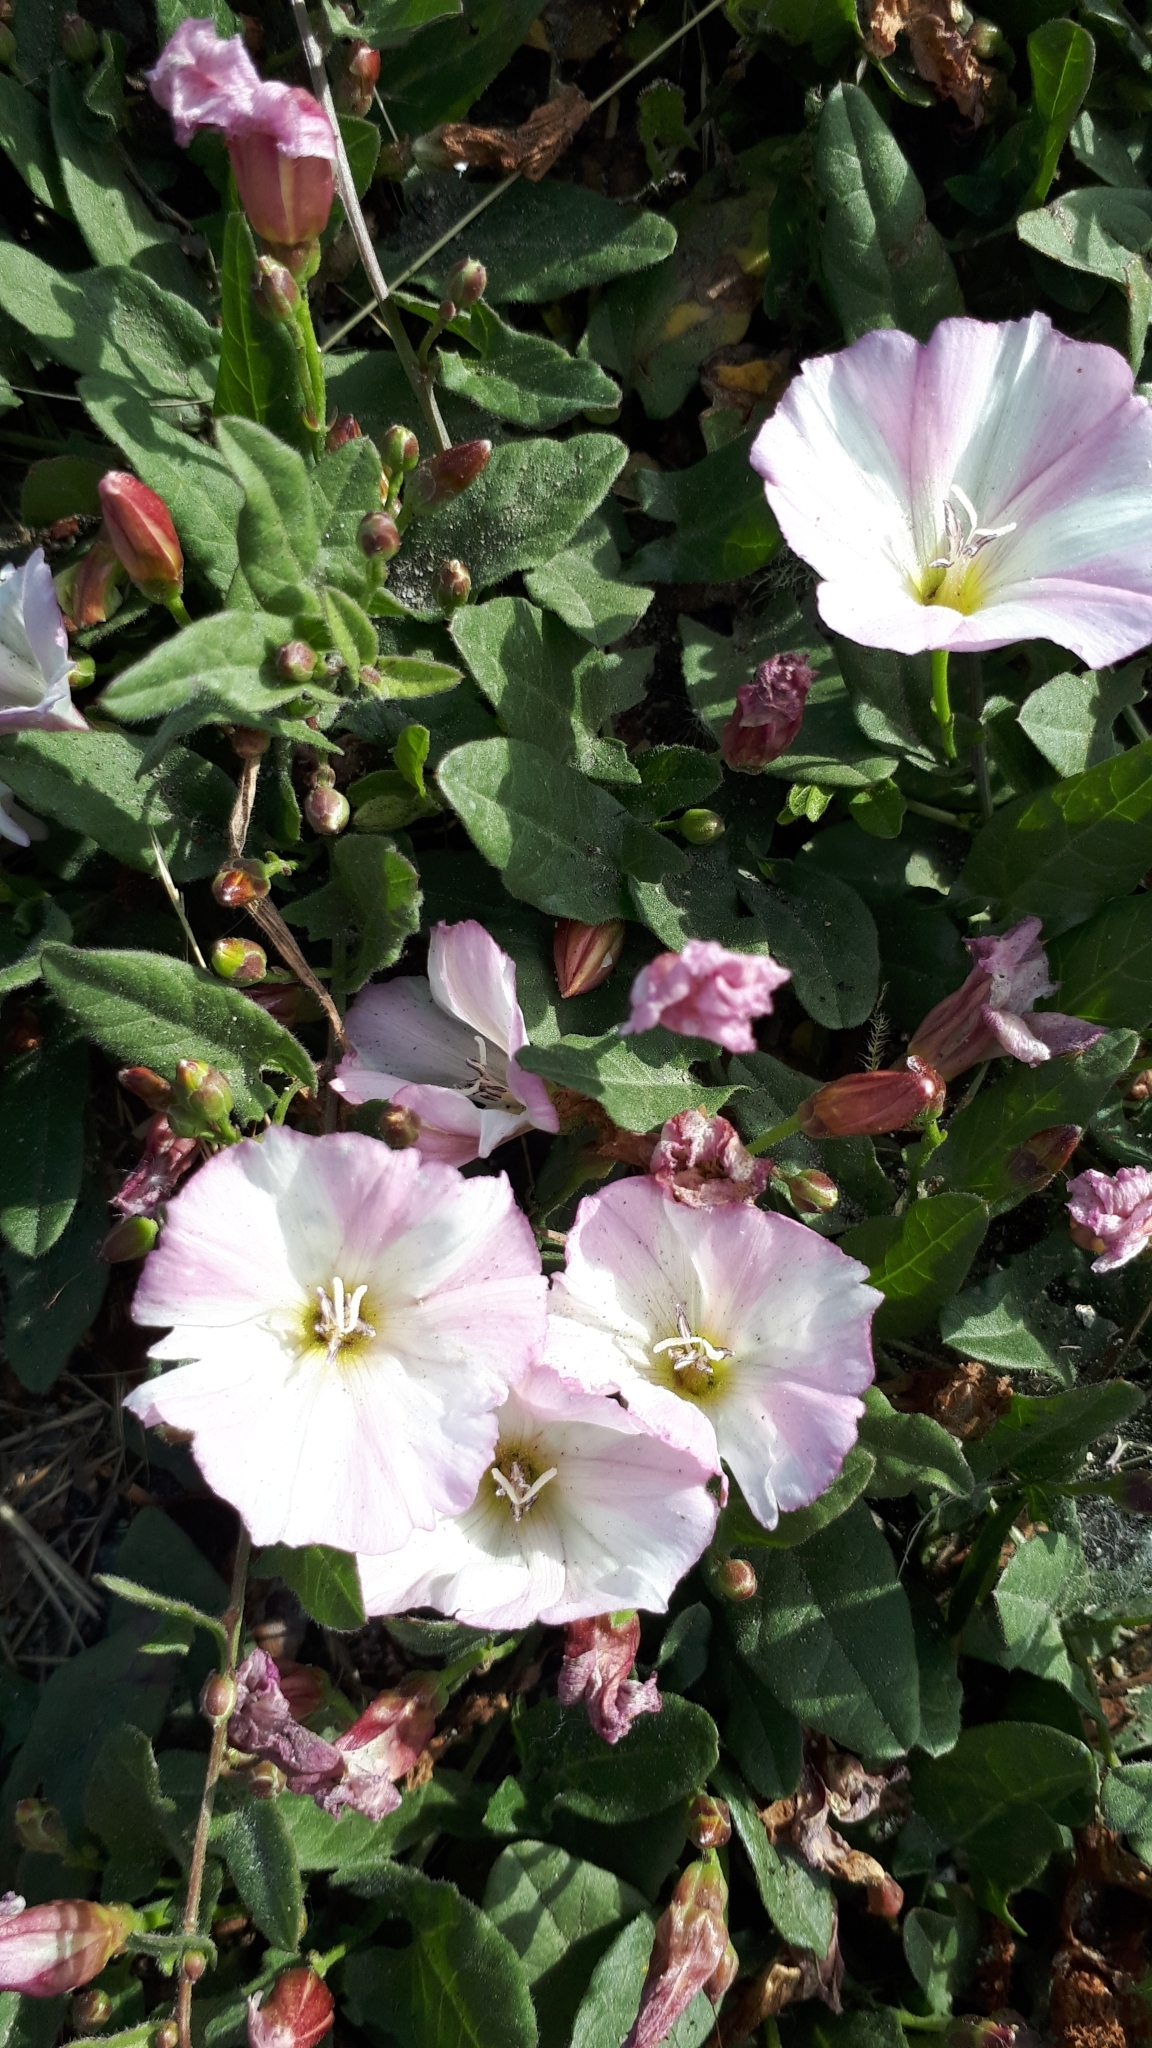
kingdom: Plantae
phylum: Tracheophyta
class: Magnoliopsida
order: Solanales
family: Convolvulaceae
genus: Convolvulus
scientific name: Convolvulus arvensis
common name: Field bindweed
